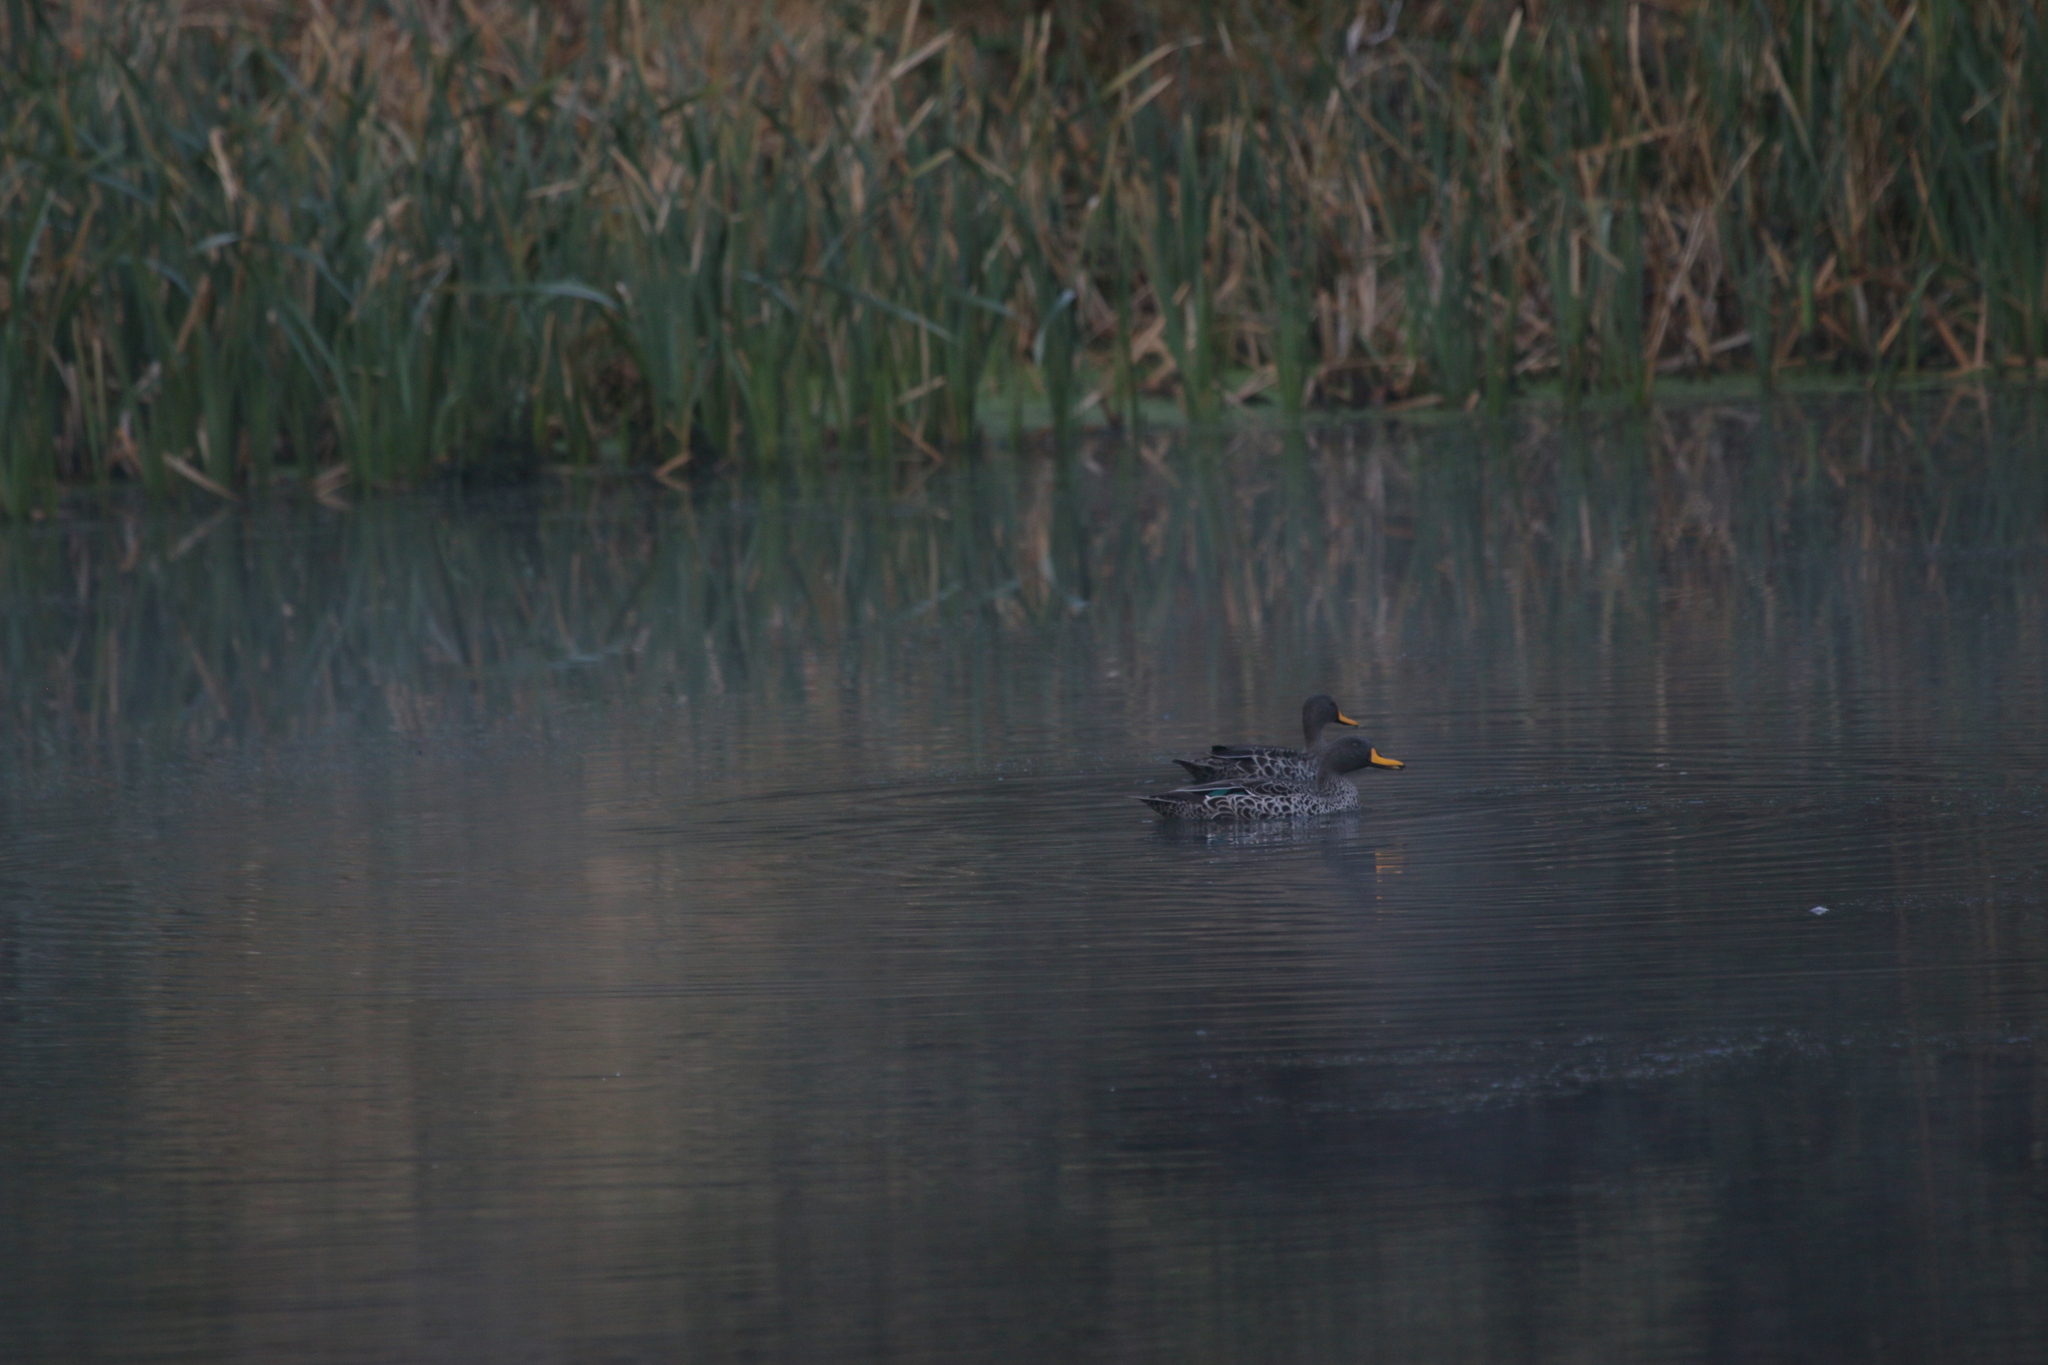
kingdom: Animalia
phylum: Chordata
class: Aves
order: Anseriformes
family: Anatidae
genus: Anas
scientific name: Anas undulata
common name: Yellow-billed duck
